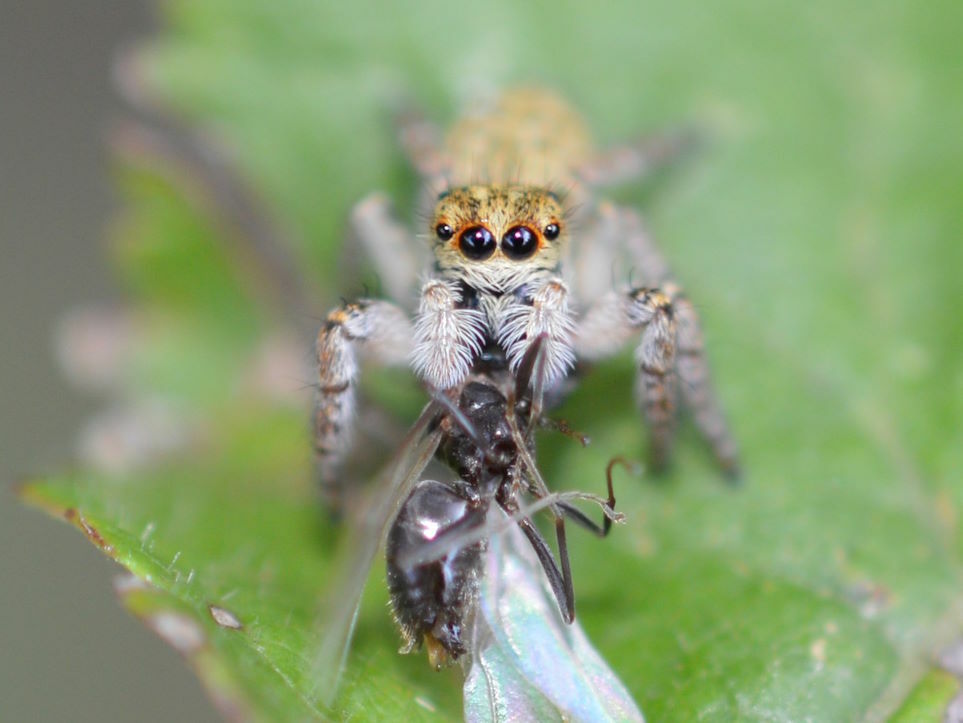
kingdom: Animalia
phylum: Arthropoda
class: Arachnida
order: Araneae
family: Salticidae
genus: Carrhotus
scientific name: Carrhotus xanthogramma
